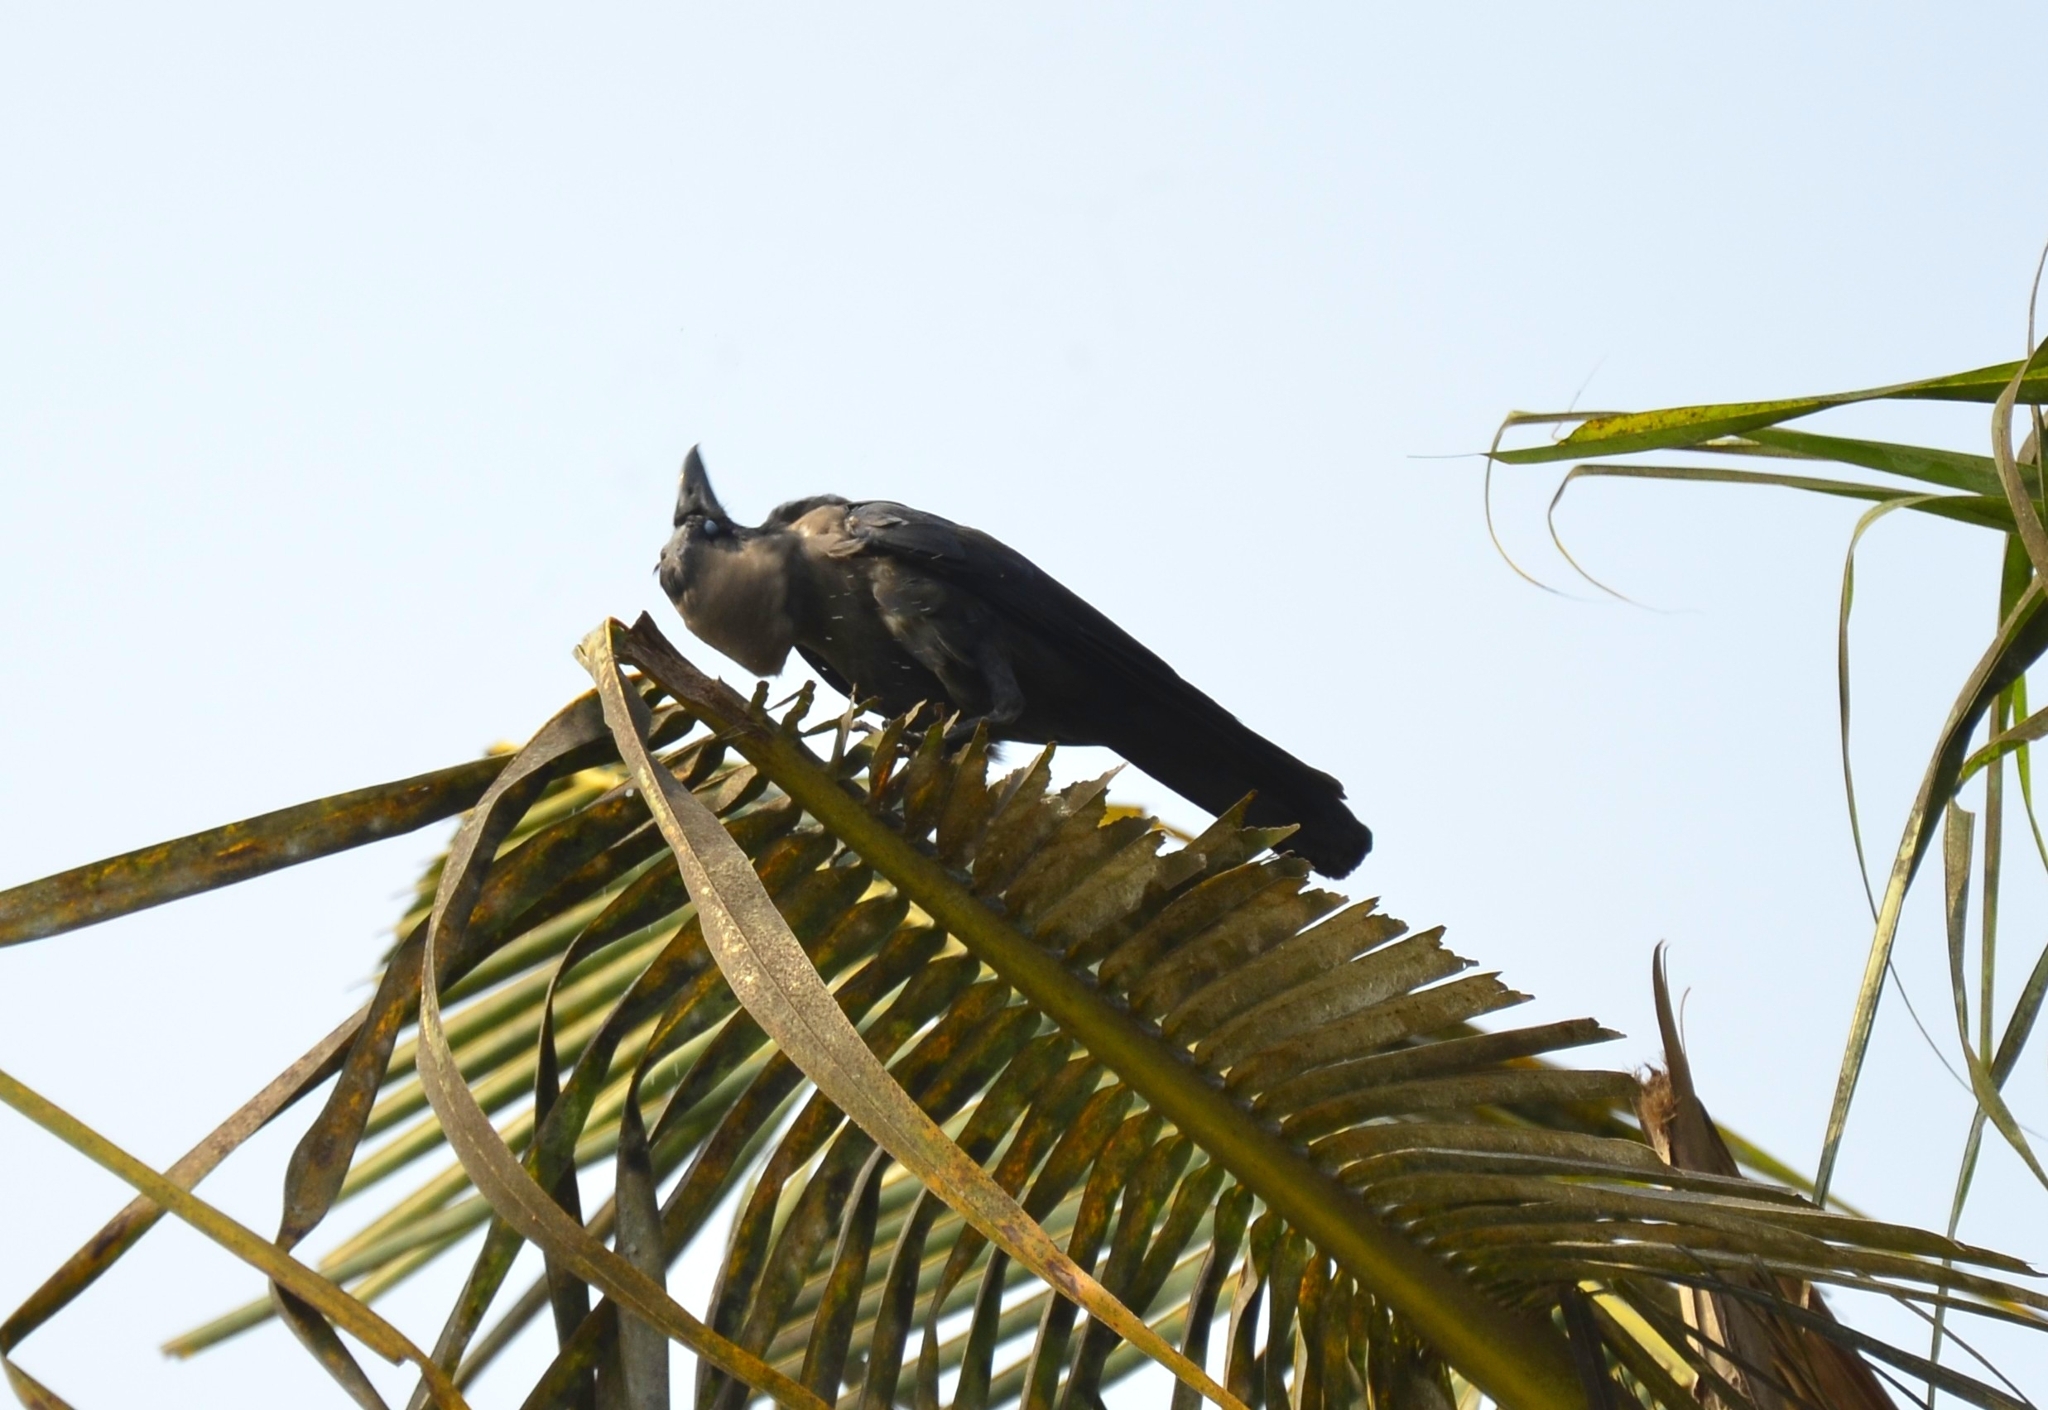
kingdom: Animalia
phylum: Chordata
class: Aves
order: Passeriformes
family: Corvidae
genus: Corvus
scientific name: Corvus splendens
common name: House crow
